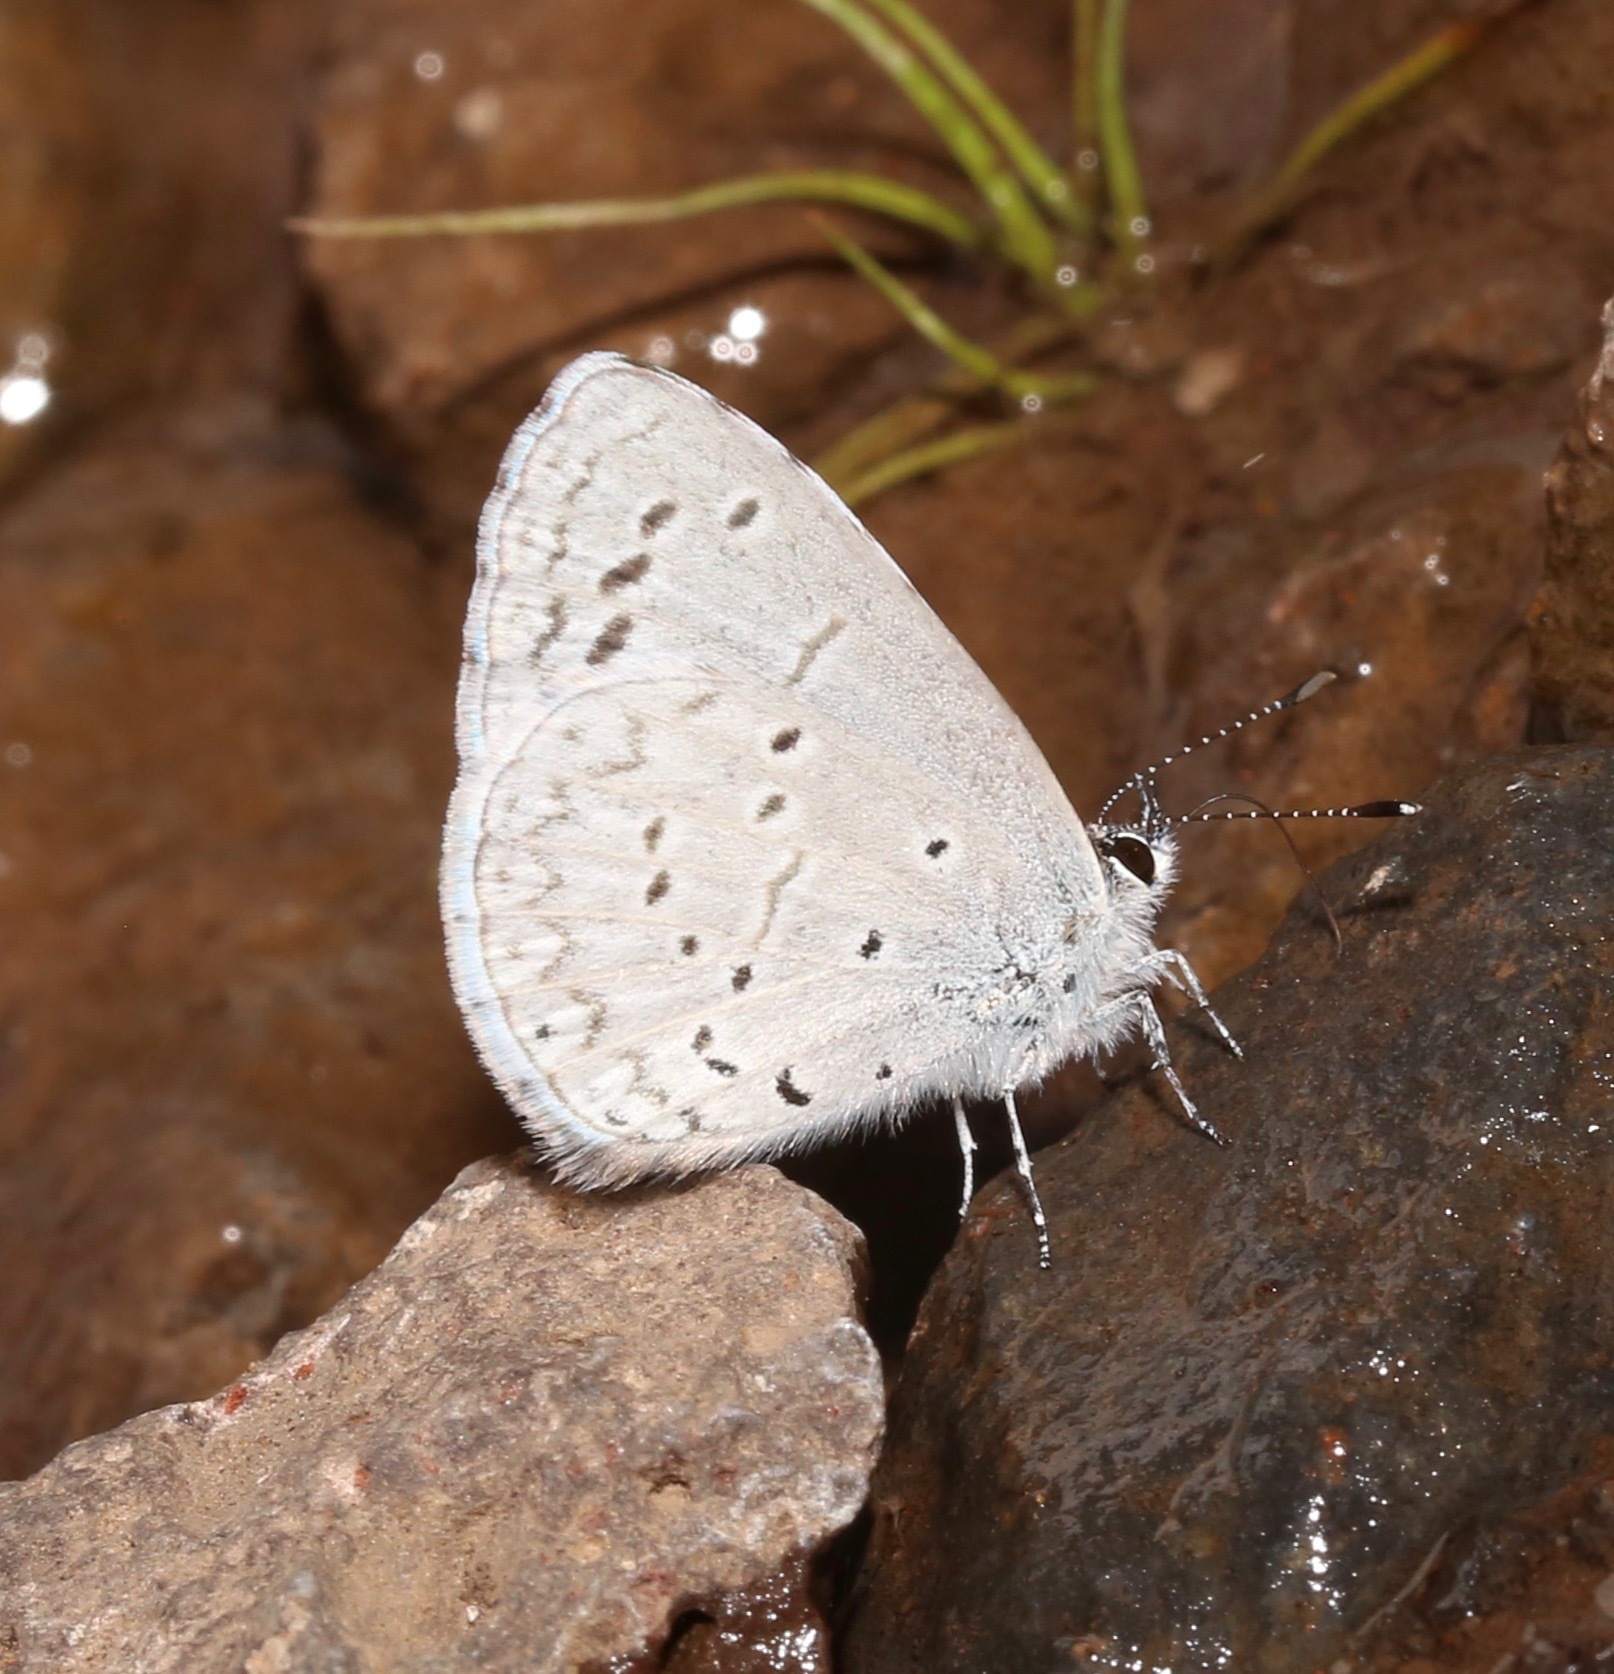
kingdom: Animalia
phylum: Arthropoda
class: Insecta
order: Lepidoptera
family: Lycaenidae
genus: Celastrina
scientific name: Celastrina ladon
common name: Spring azure
